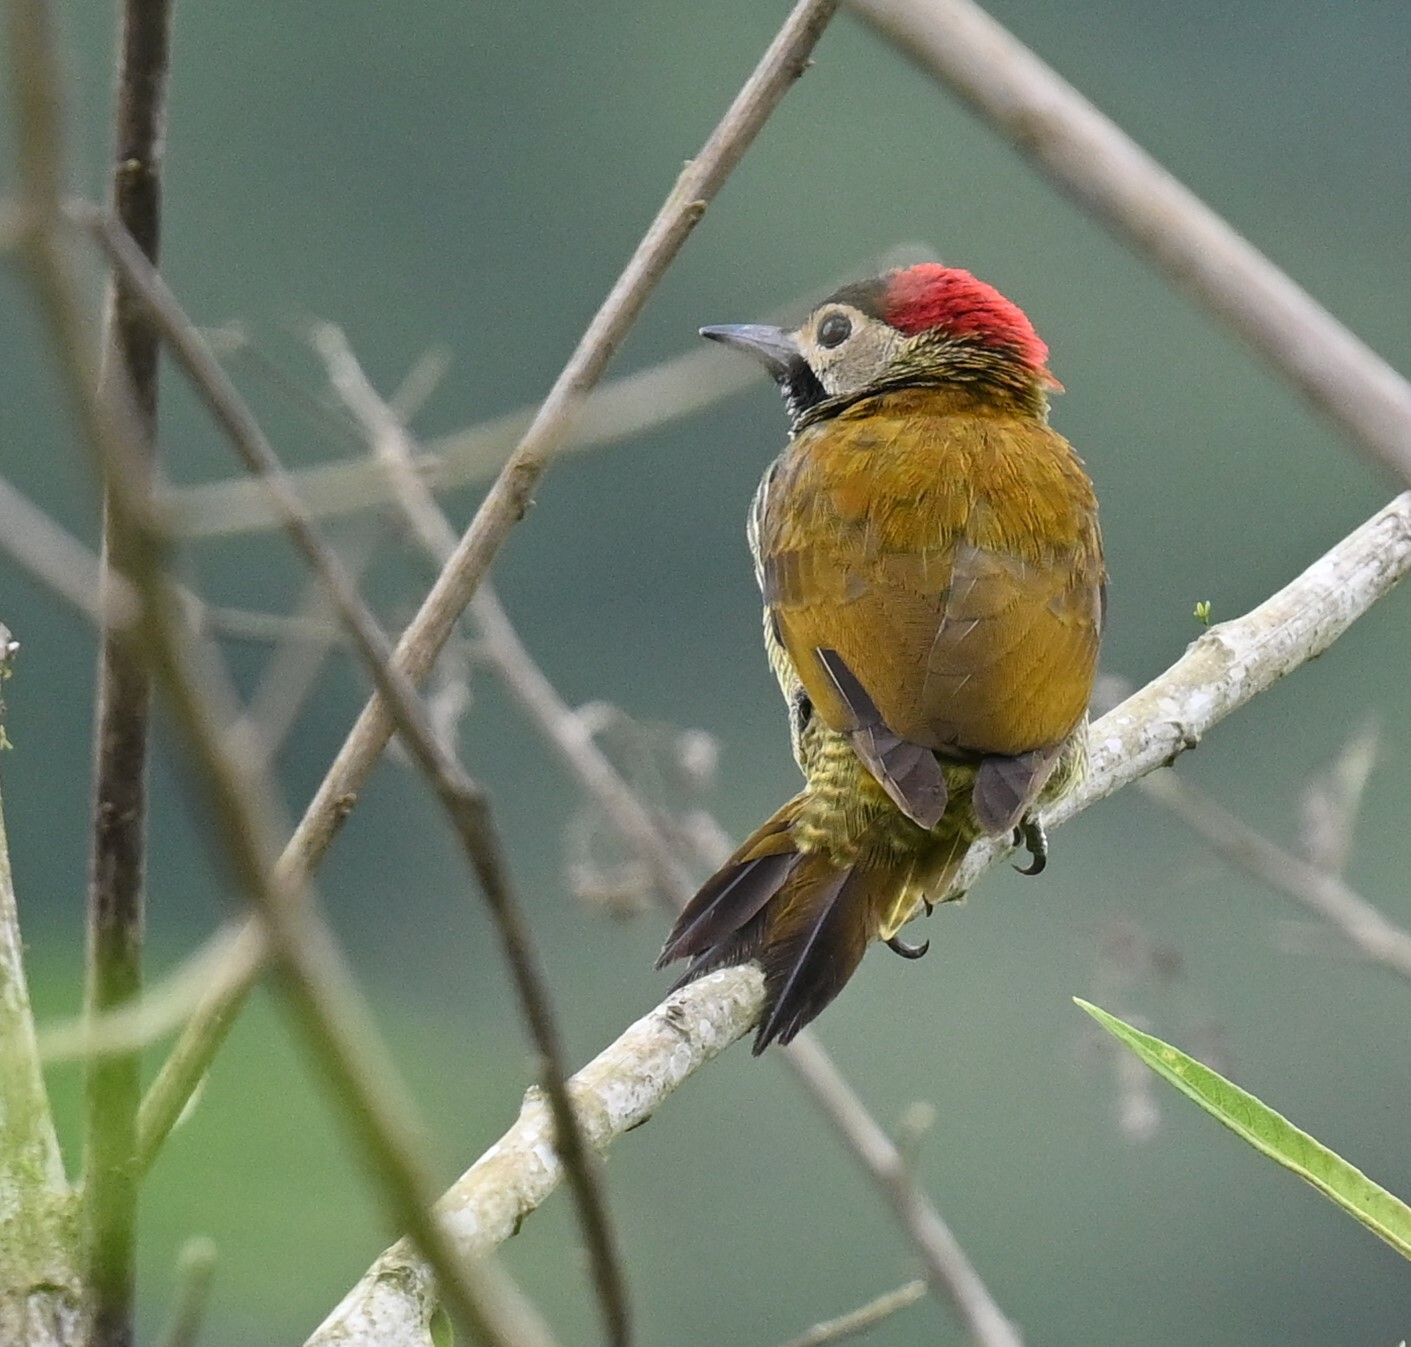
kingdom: Animalia
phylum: Chordata
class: Aves
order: Piciformes
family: Picidae
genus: Colaptes
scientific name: Colaptes rubiginosus
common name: Golden-olive woodpecker
